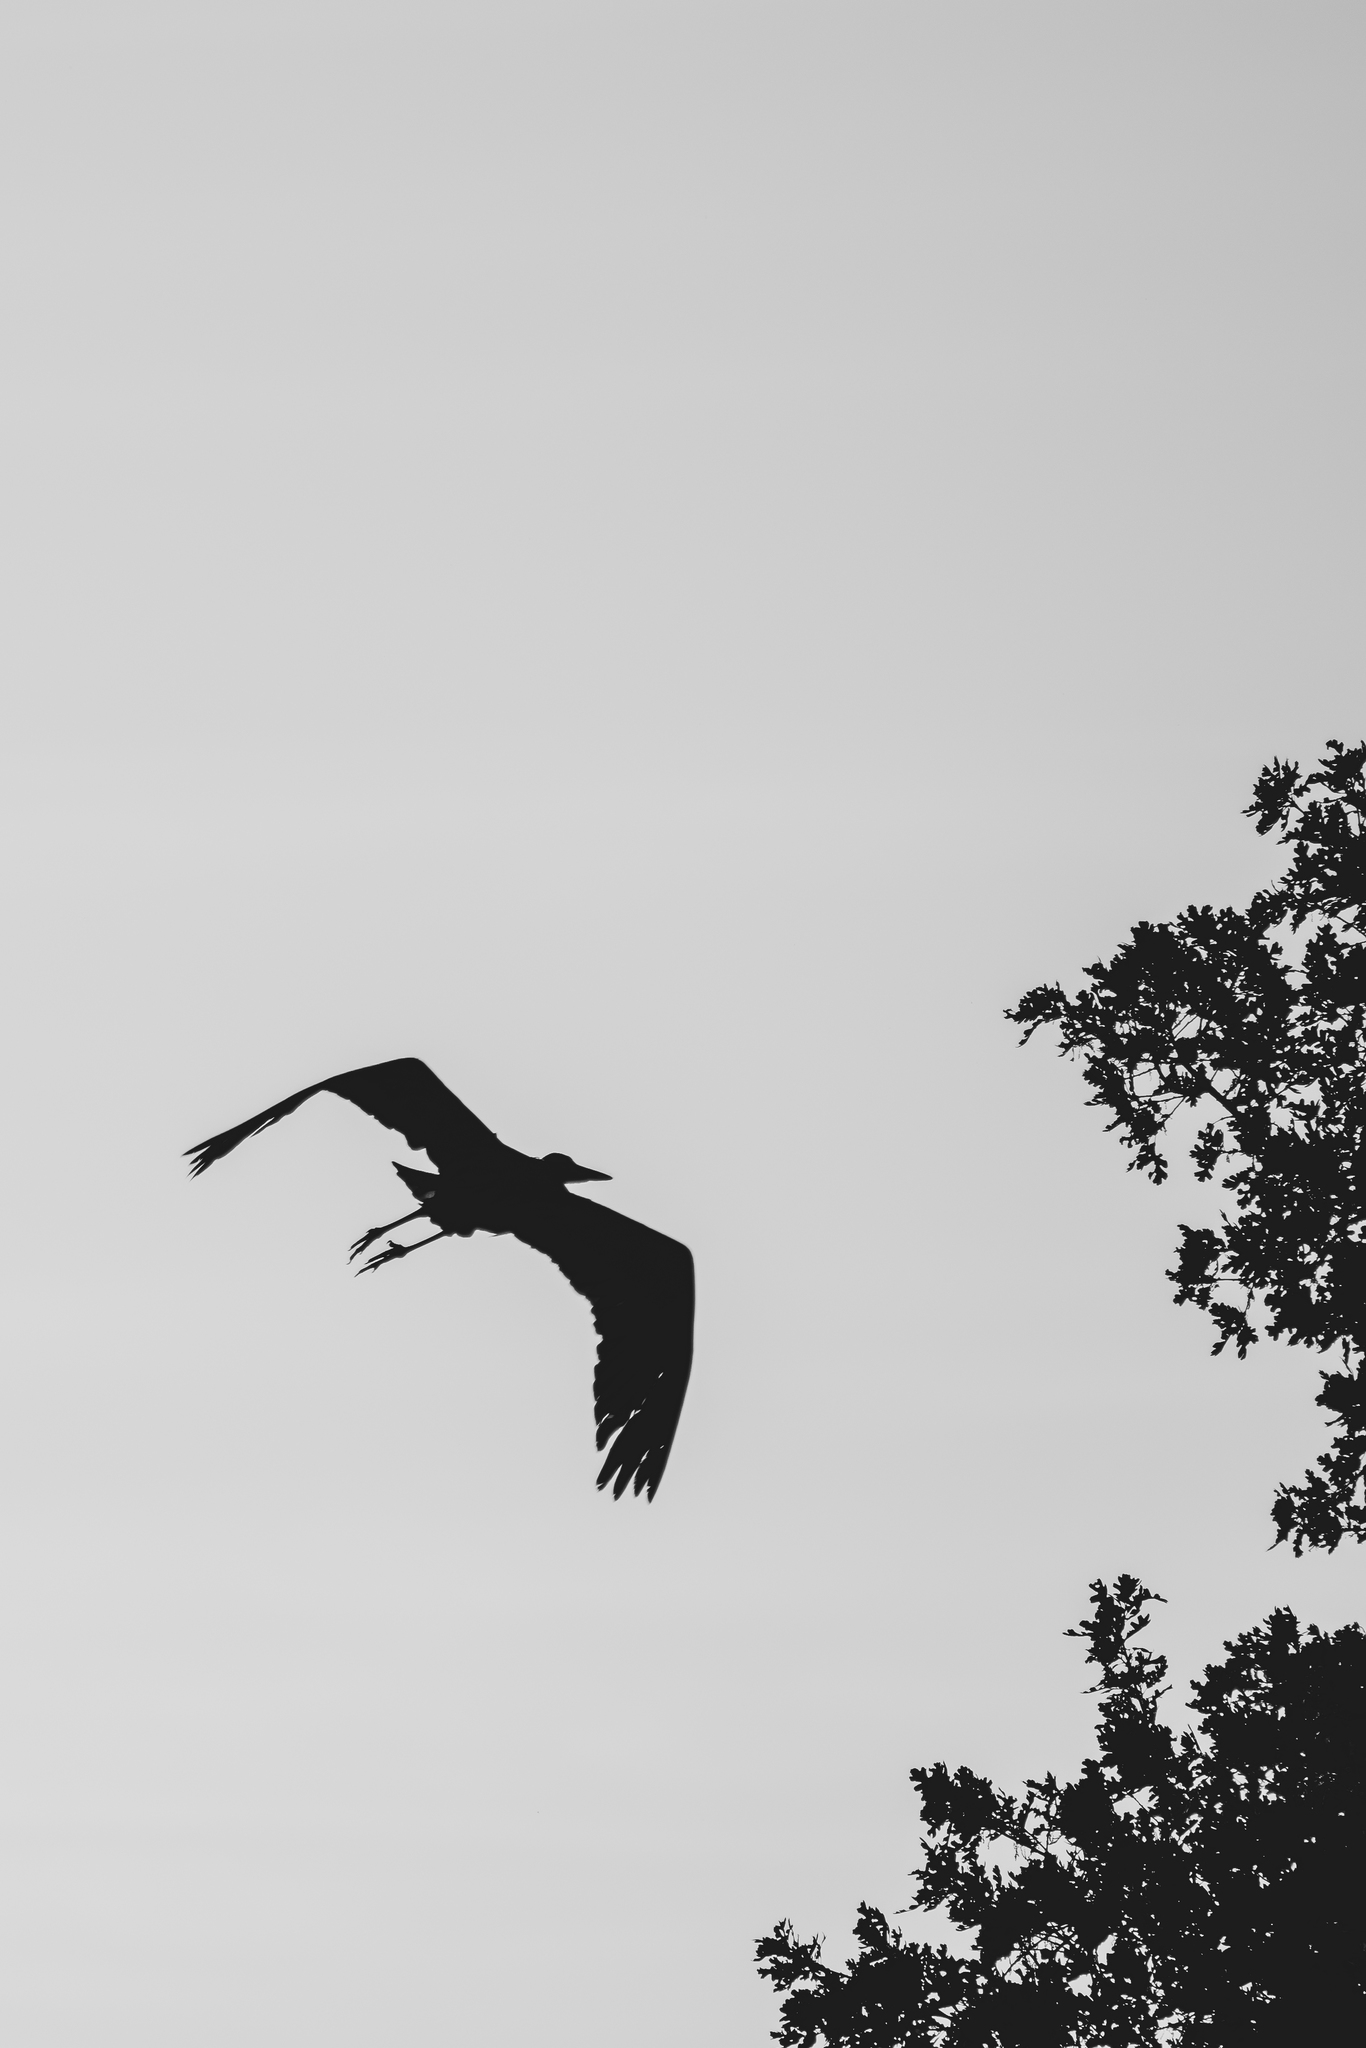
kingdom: Animalia
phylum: Chordata
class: Aves
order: Pelecaniformes
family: Ardeidae
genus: Ardea
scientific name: Ardea herodias
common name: Great blue heron
